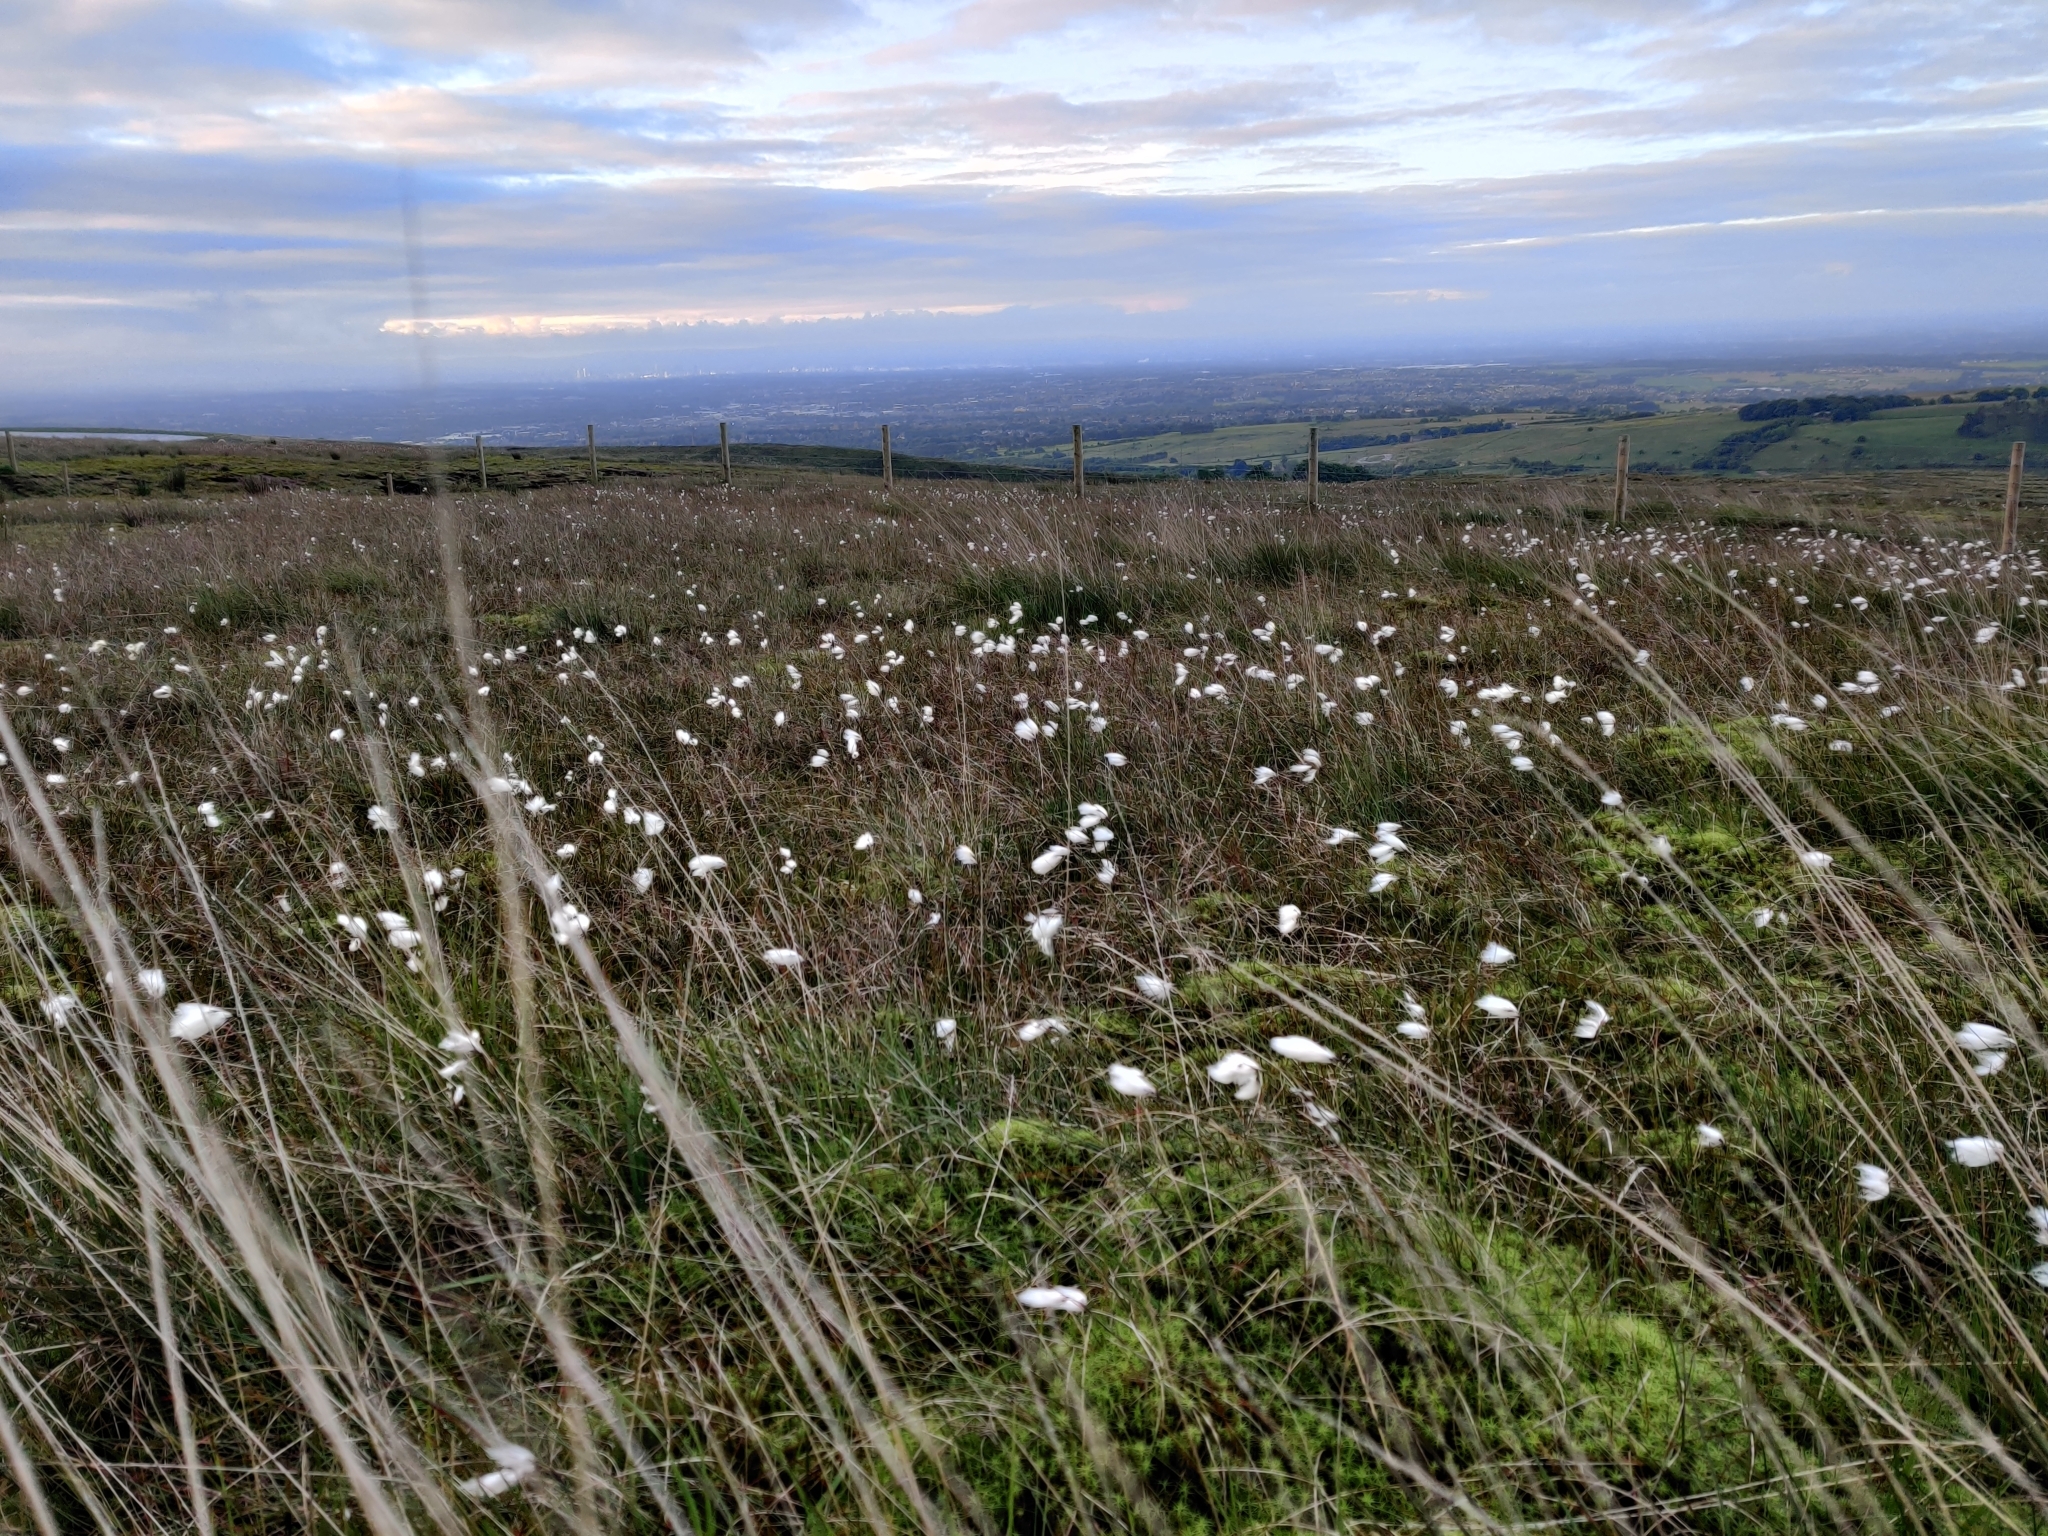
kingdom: Plantae
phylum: Tracheophyta
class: Liliopsida
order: Poales
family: Cyperaceae
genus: Eriophorum
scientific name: Eriophorum angustifolium
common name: Common cottongrass
